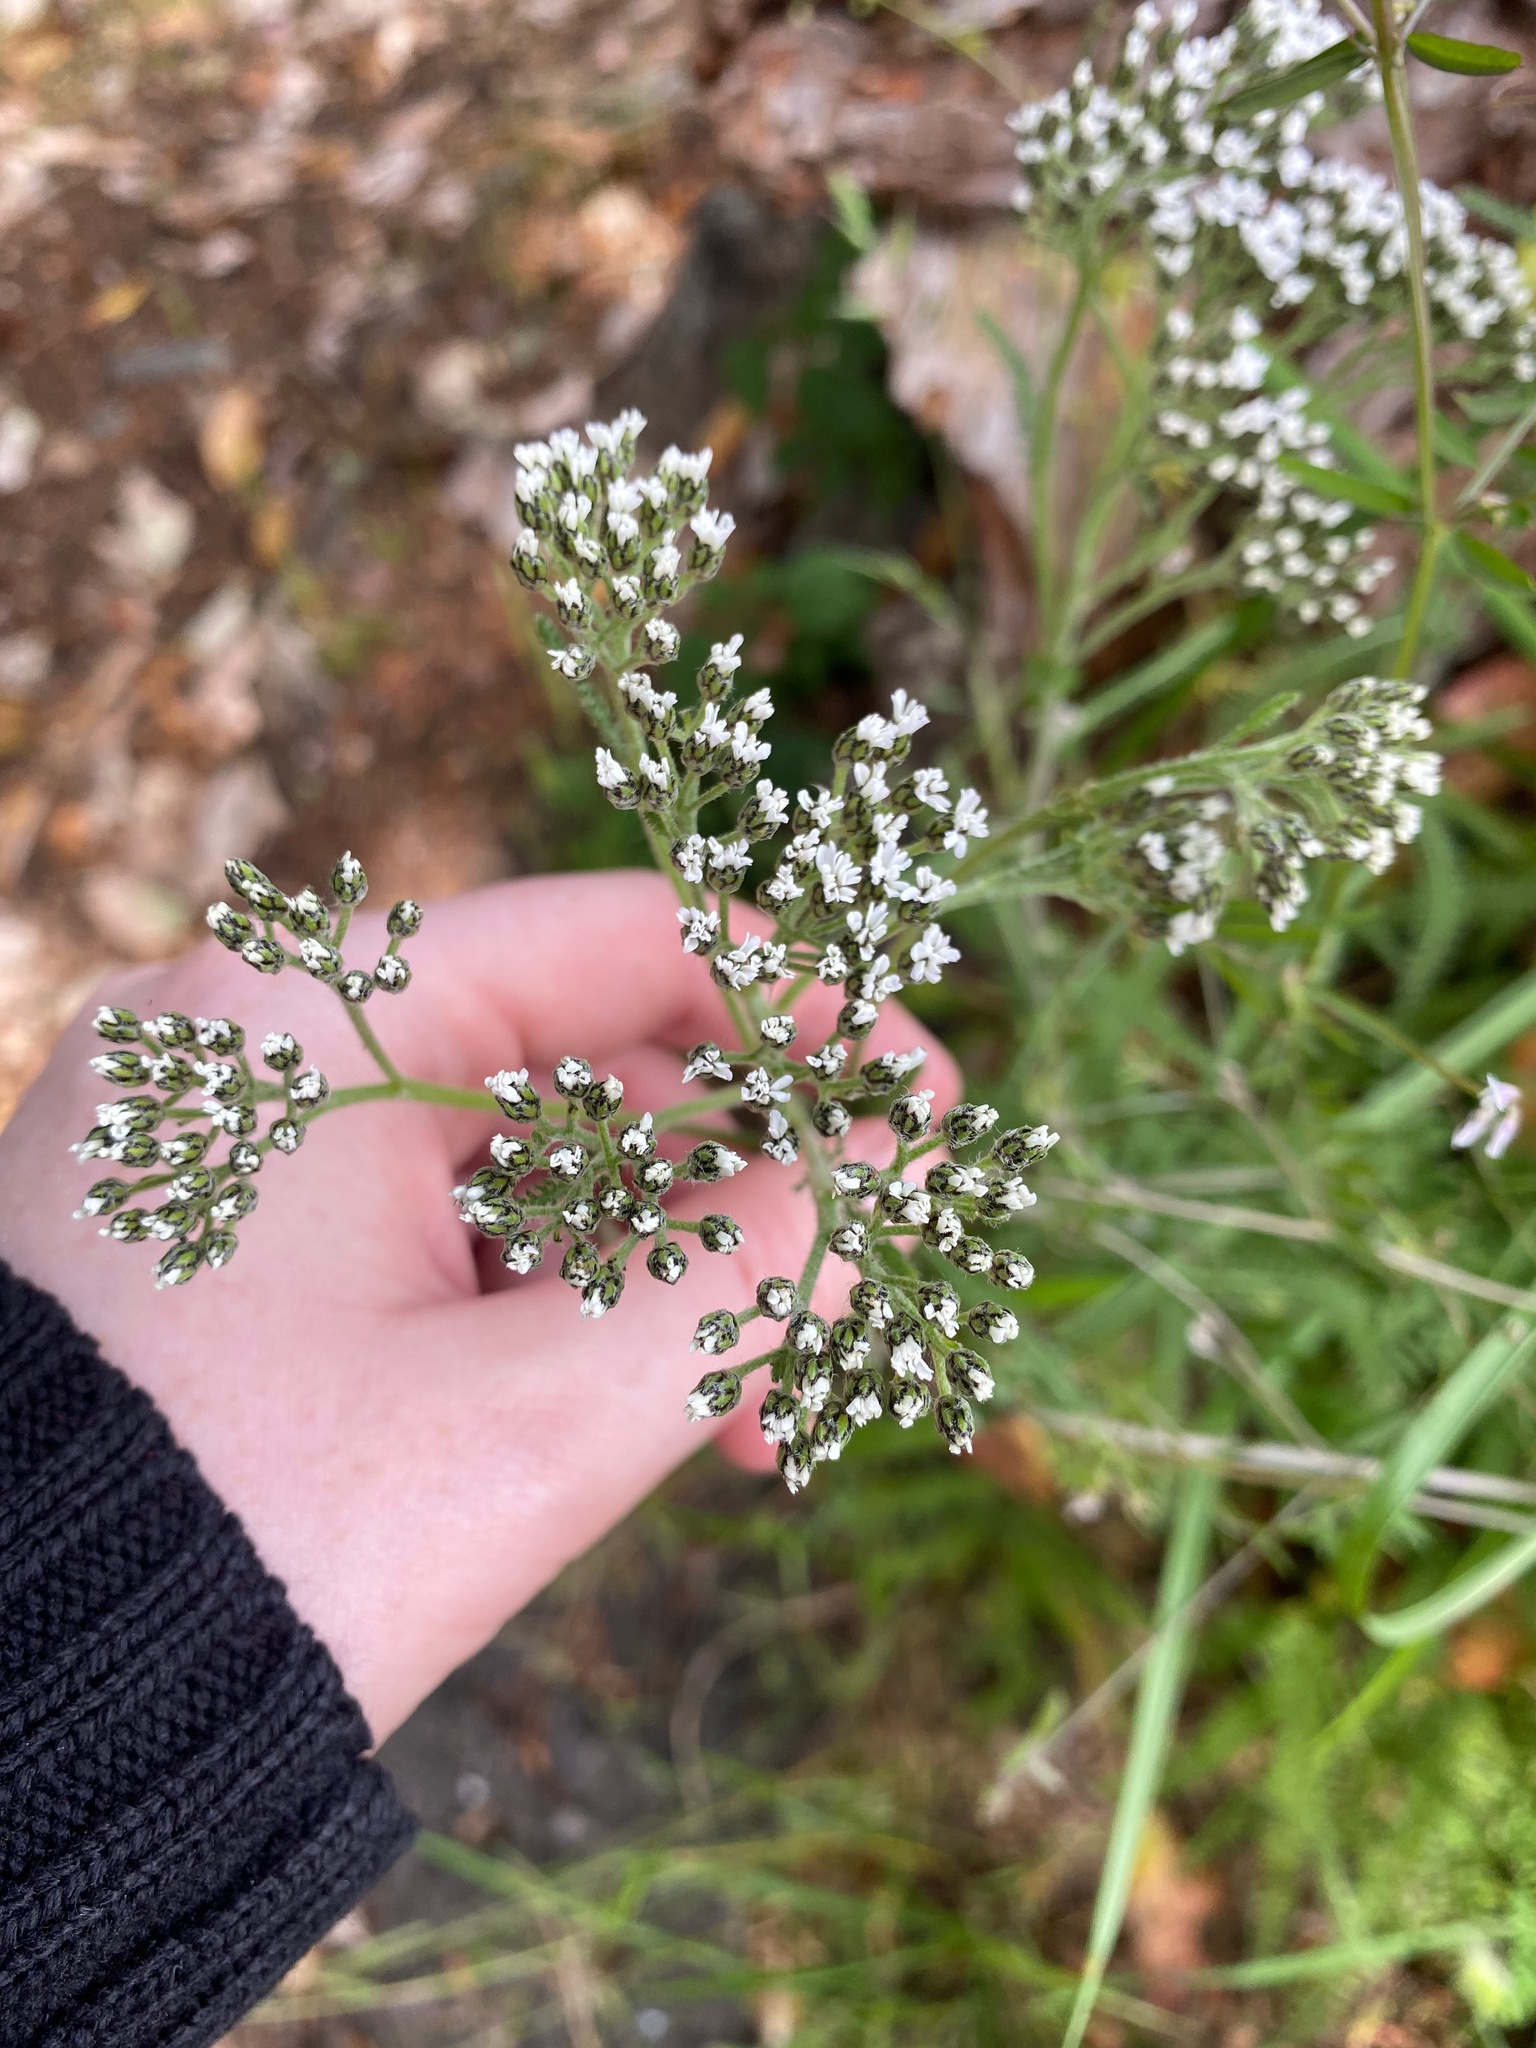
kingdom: Plantae
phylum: Tracheophyta
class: Magnoliopsida
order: Asterales
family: Asteraceae
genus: Achillea
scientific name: Achillea millefolium
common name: Yarrow
